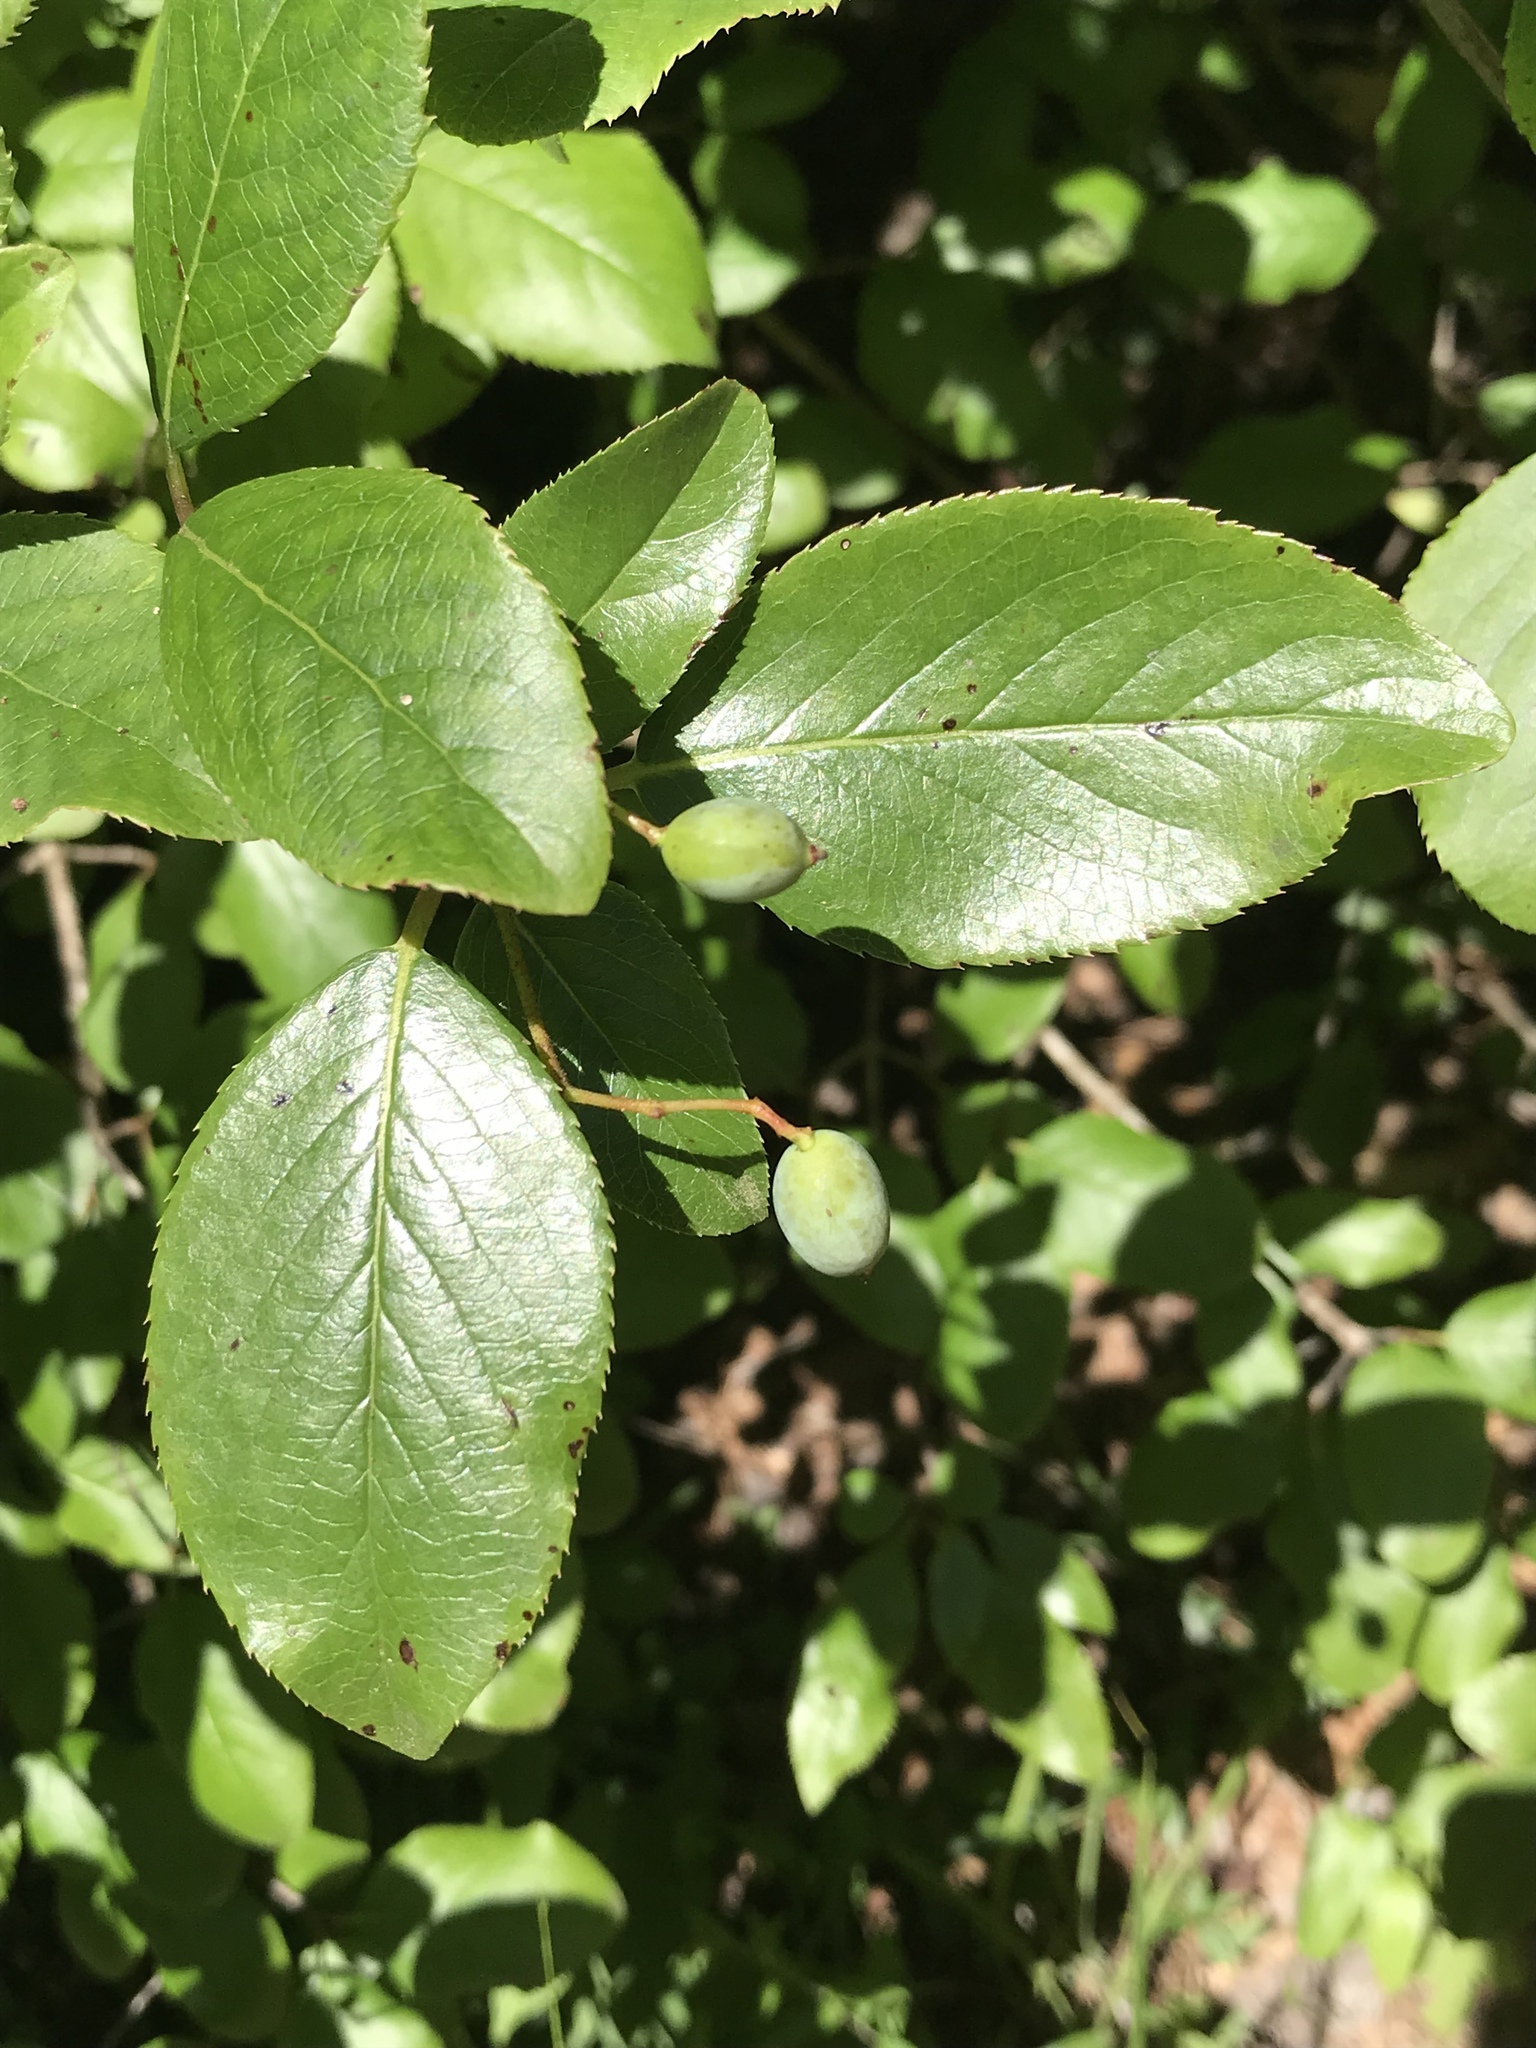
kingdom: Plantae
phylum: Tracheophyta
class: Magnoliopsida
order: Dipsacales
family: Viburnaceae
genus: Viburnum
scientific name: Viburnum rufidulum
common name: Blue haw
